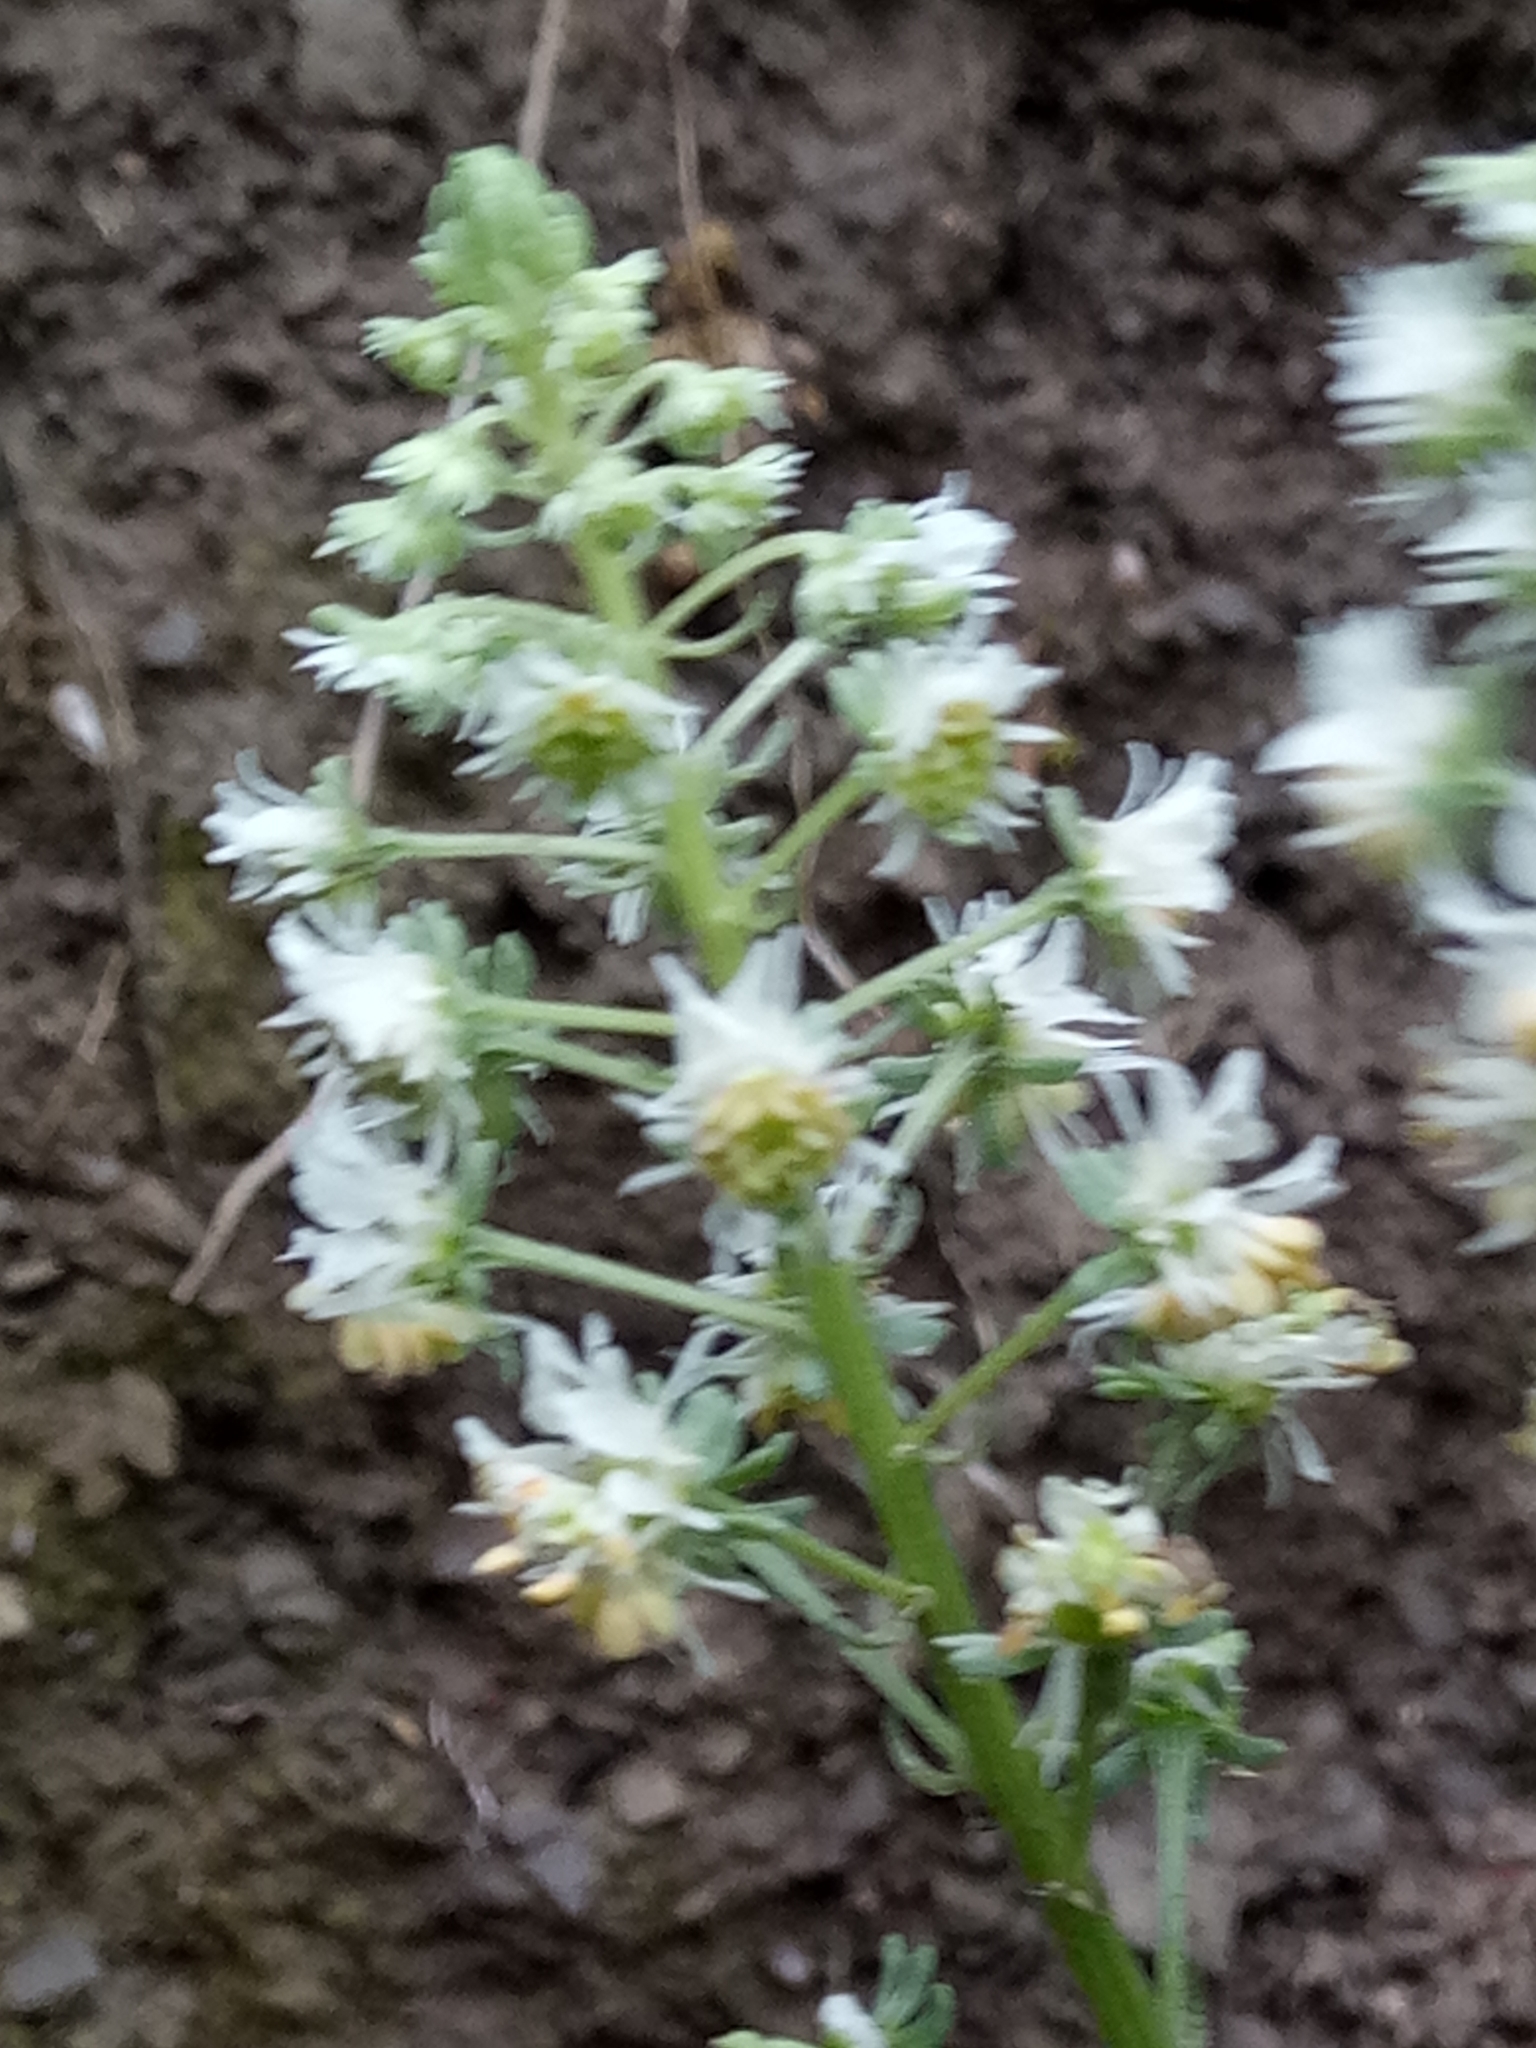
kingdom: Plantae
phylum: Tracheophyta
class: Magnoliopsida
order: Brassicales
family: Resedaceae
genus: Reseda
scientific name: Reseda duriaeana
